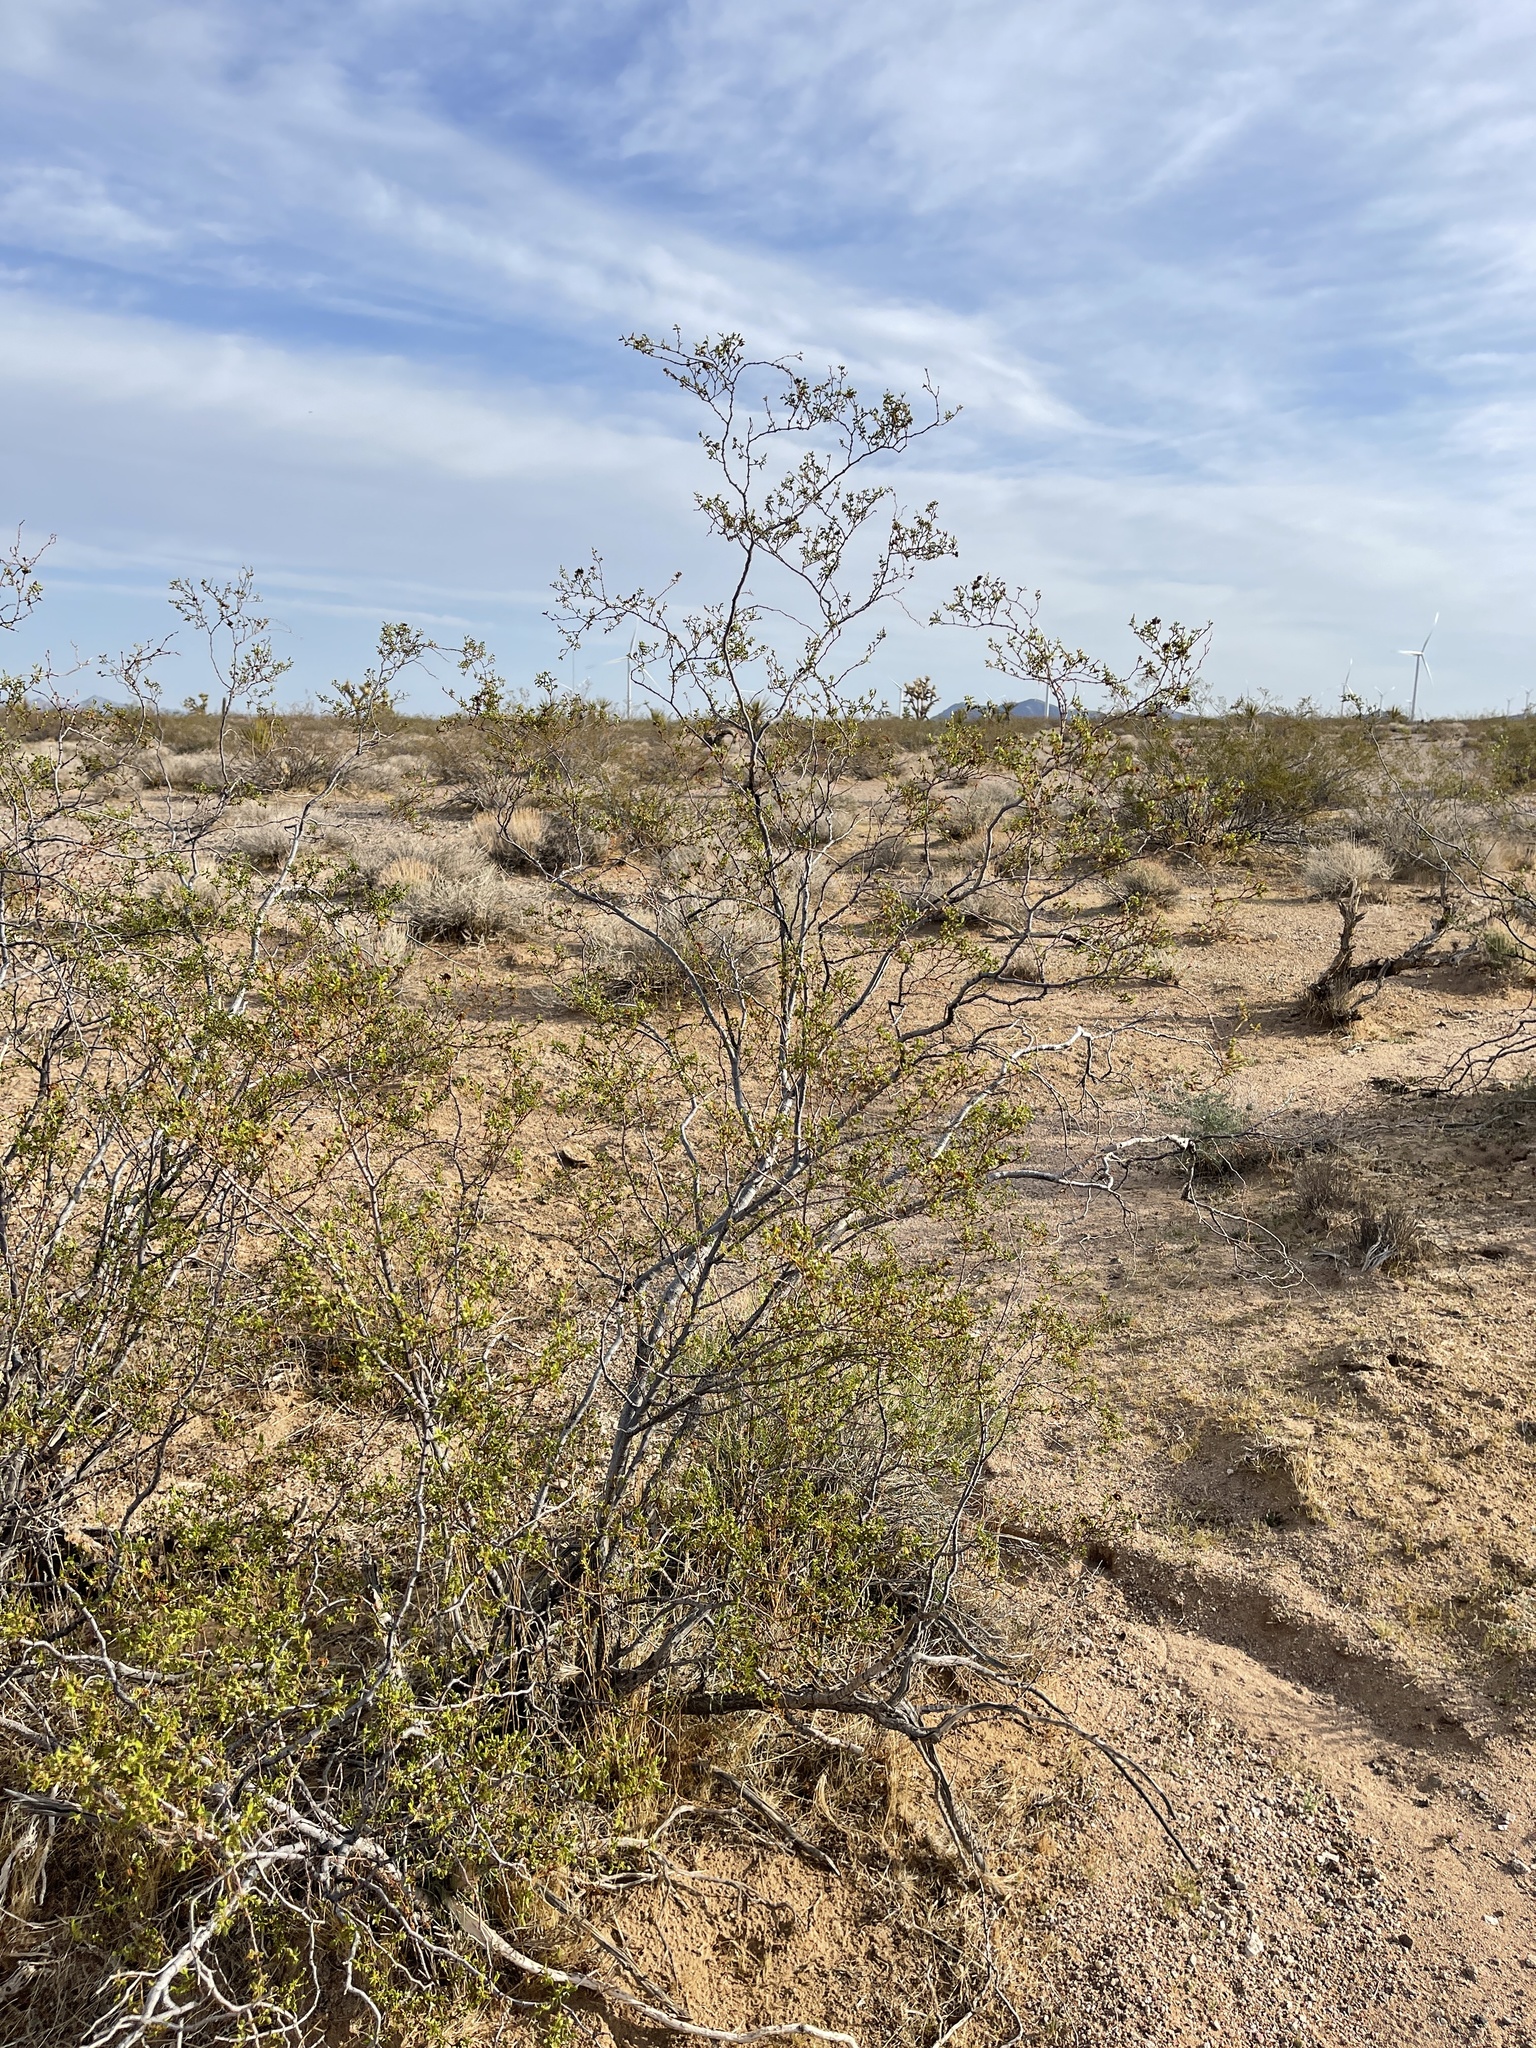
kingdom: Plantae
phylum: Tracheophyta
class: Magnoliopsida
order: Zygophyllales
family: Zygophyllaceae
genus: Larrea
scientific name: Larrea tridentata
